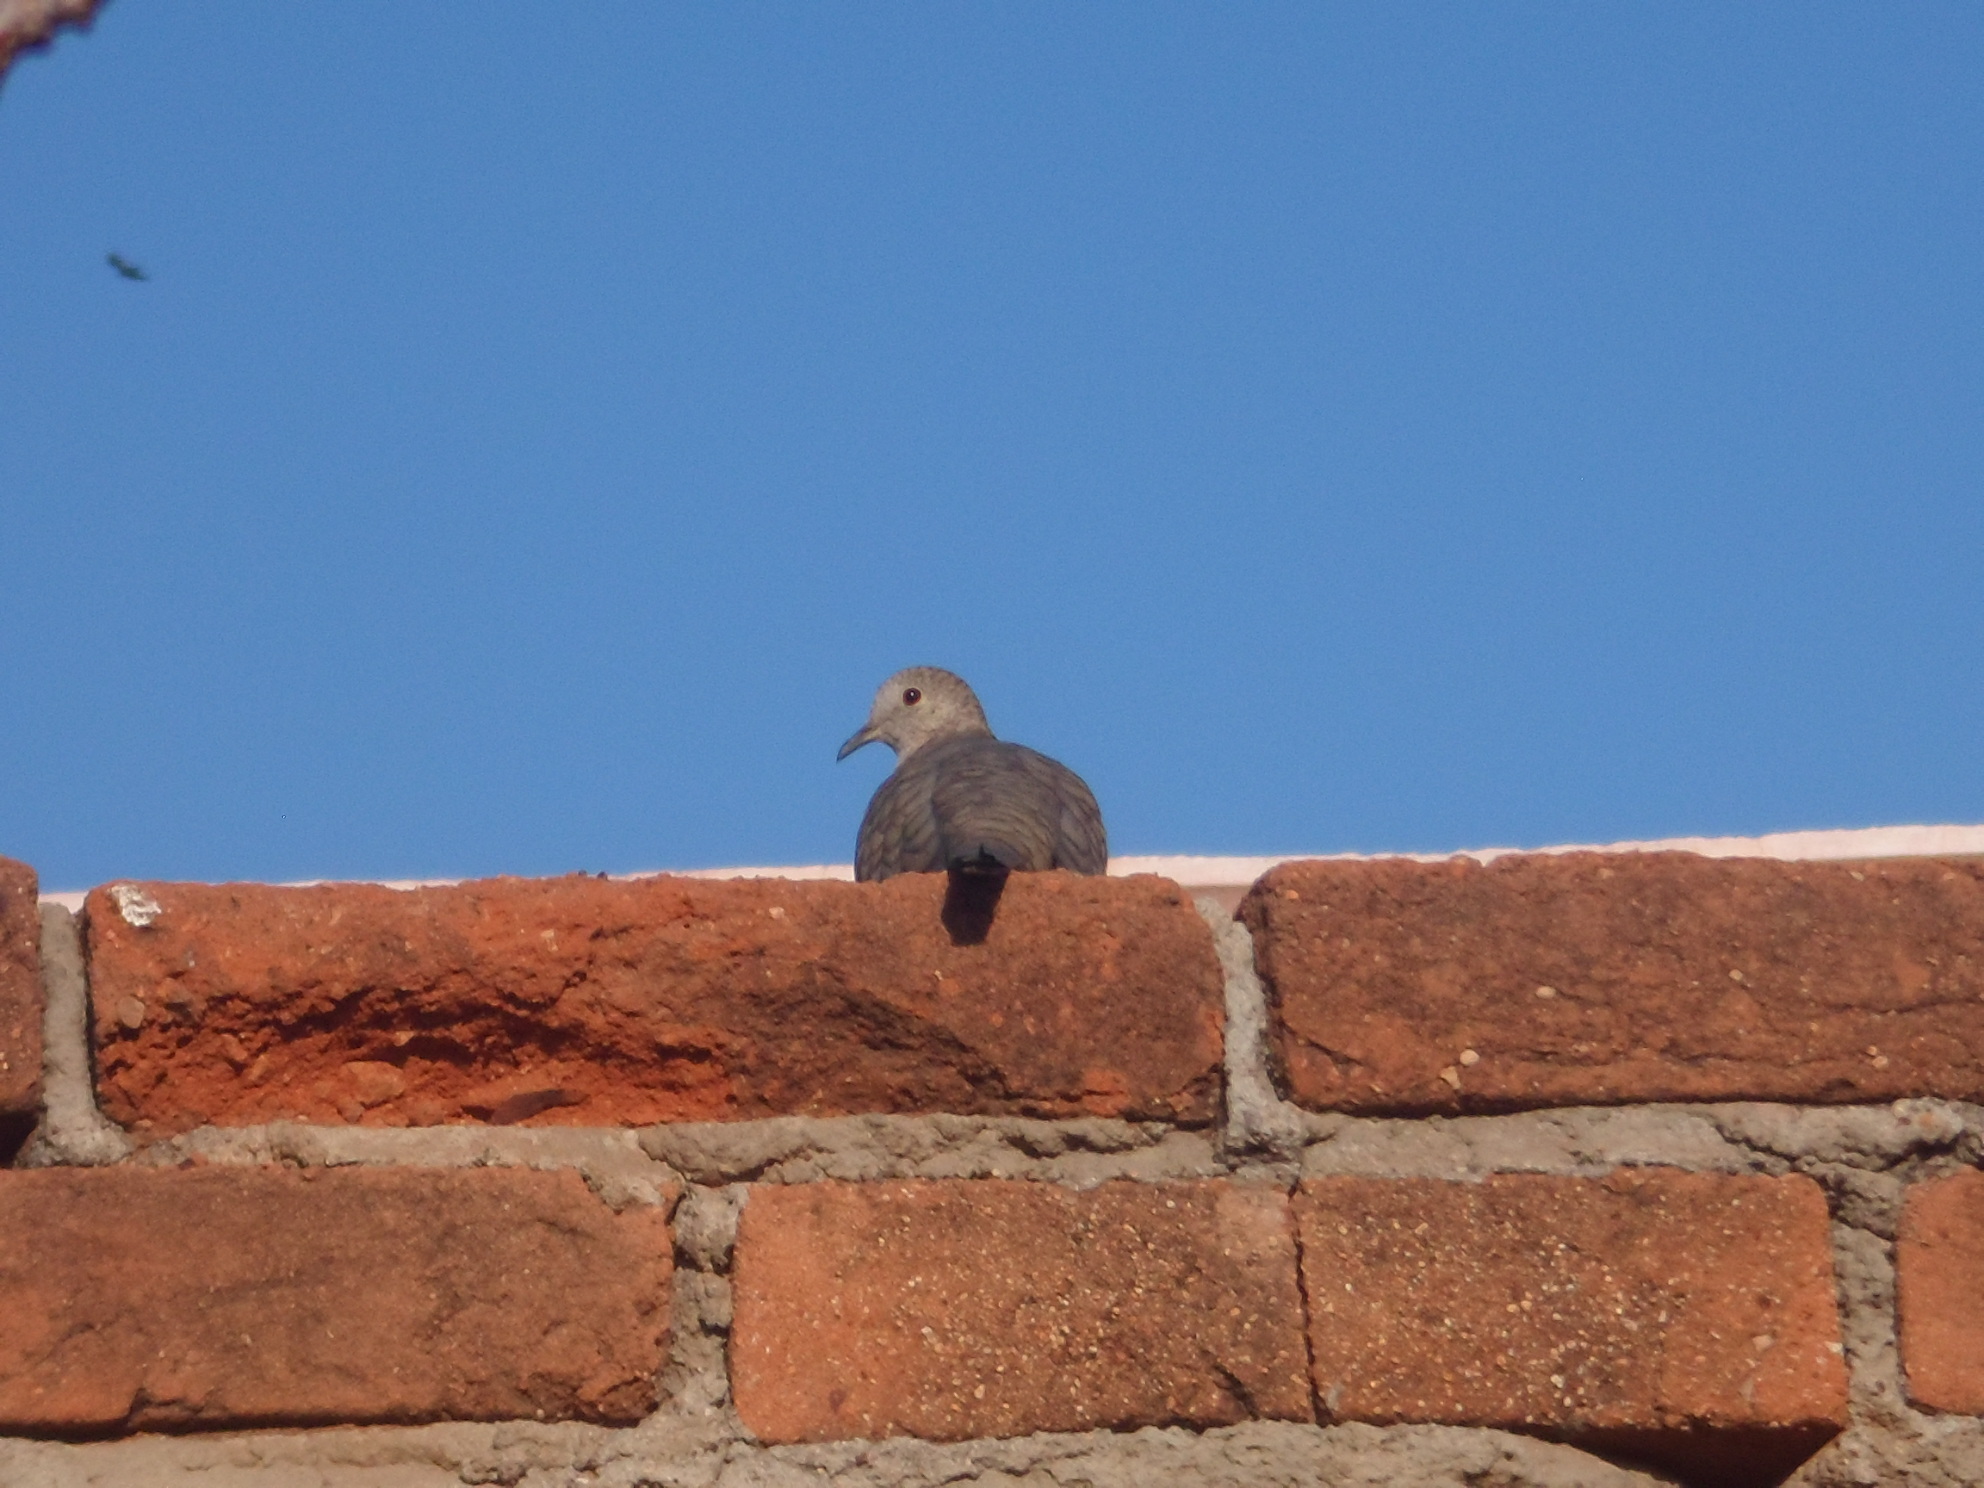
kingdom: Animalia
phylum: Chordata
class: Aves
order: Columbiformes
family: Columbidae
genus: Columbina
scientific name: Columbina inca
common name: Inca dove
